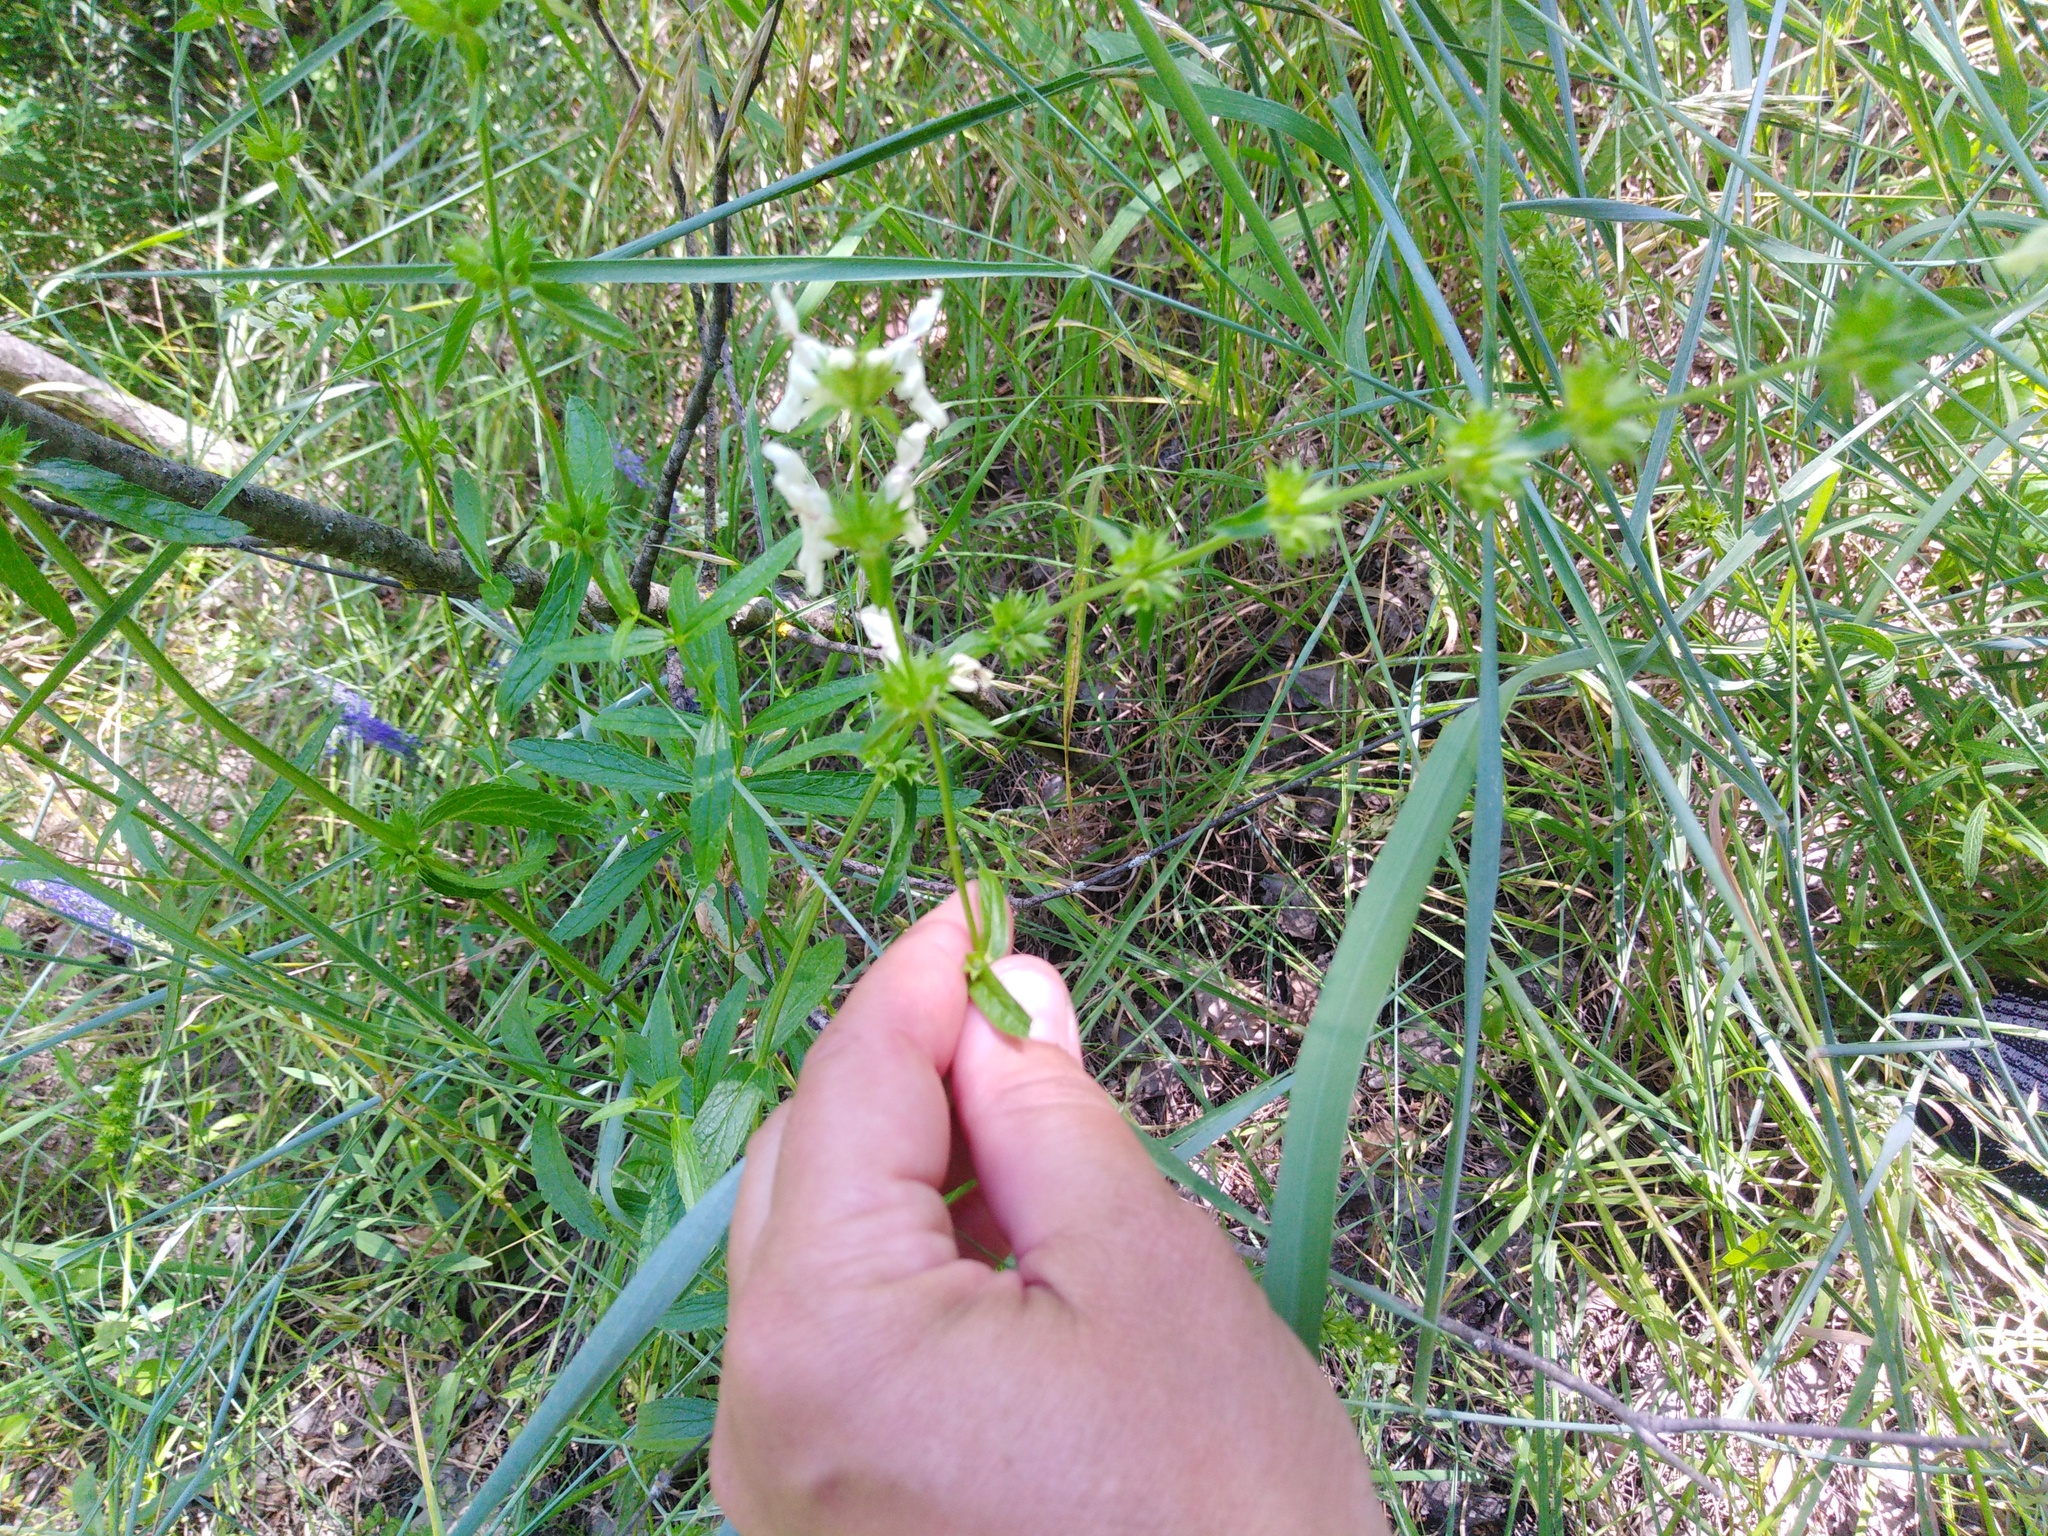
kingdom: Plantae
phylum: Tracheophyta
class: Magnoliopsida
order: Lamiales
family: Lamiaceae
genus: Stachys
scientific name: Stachys recta
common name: Perennial yellow-woundwort
